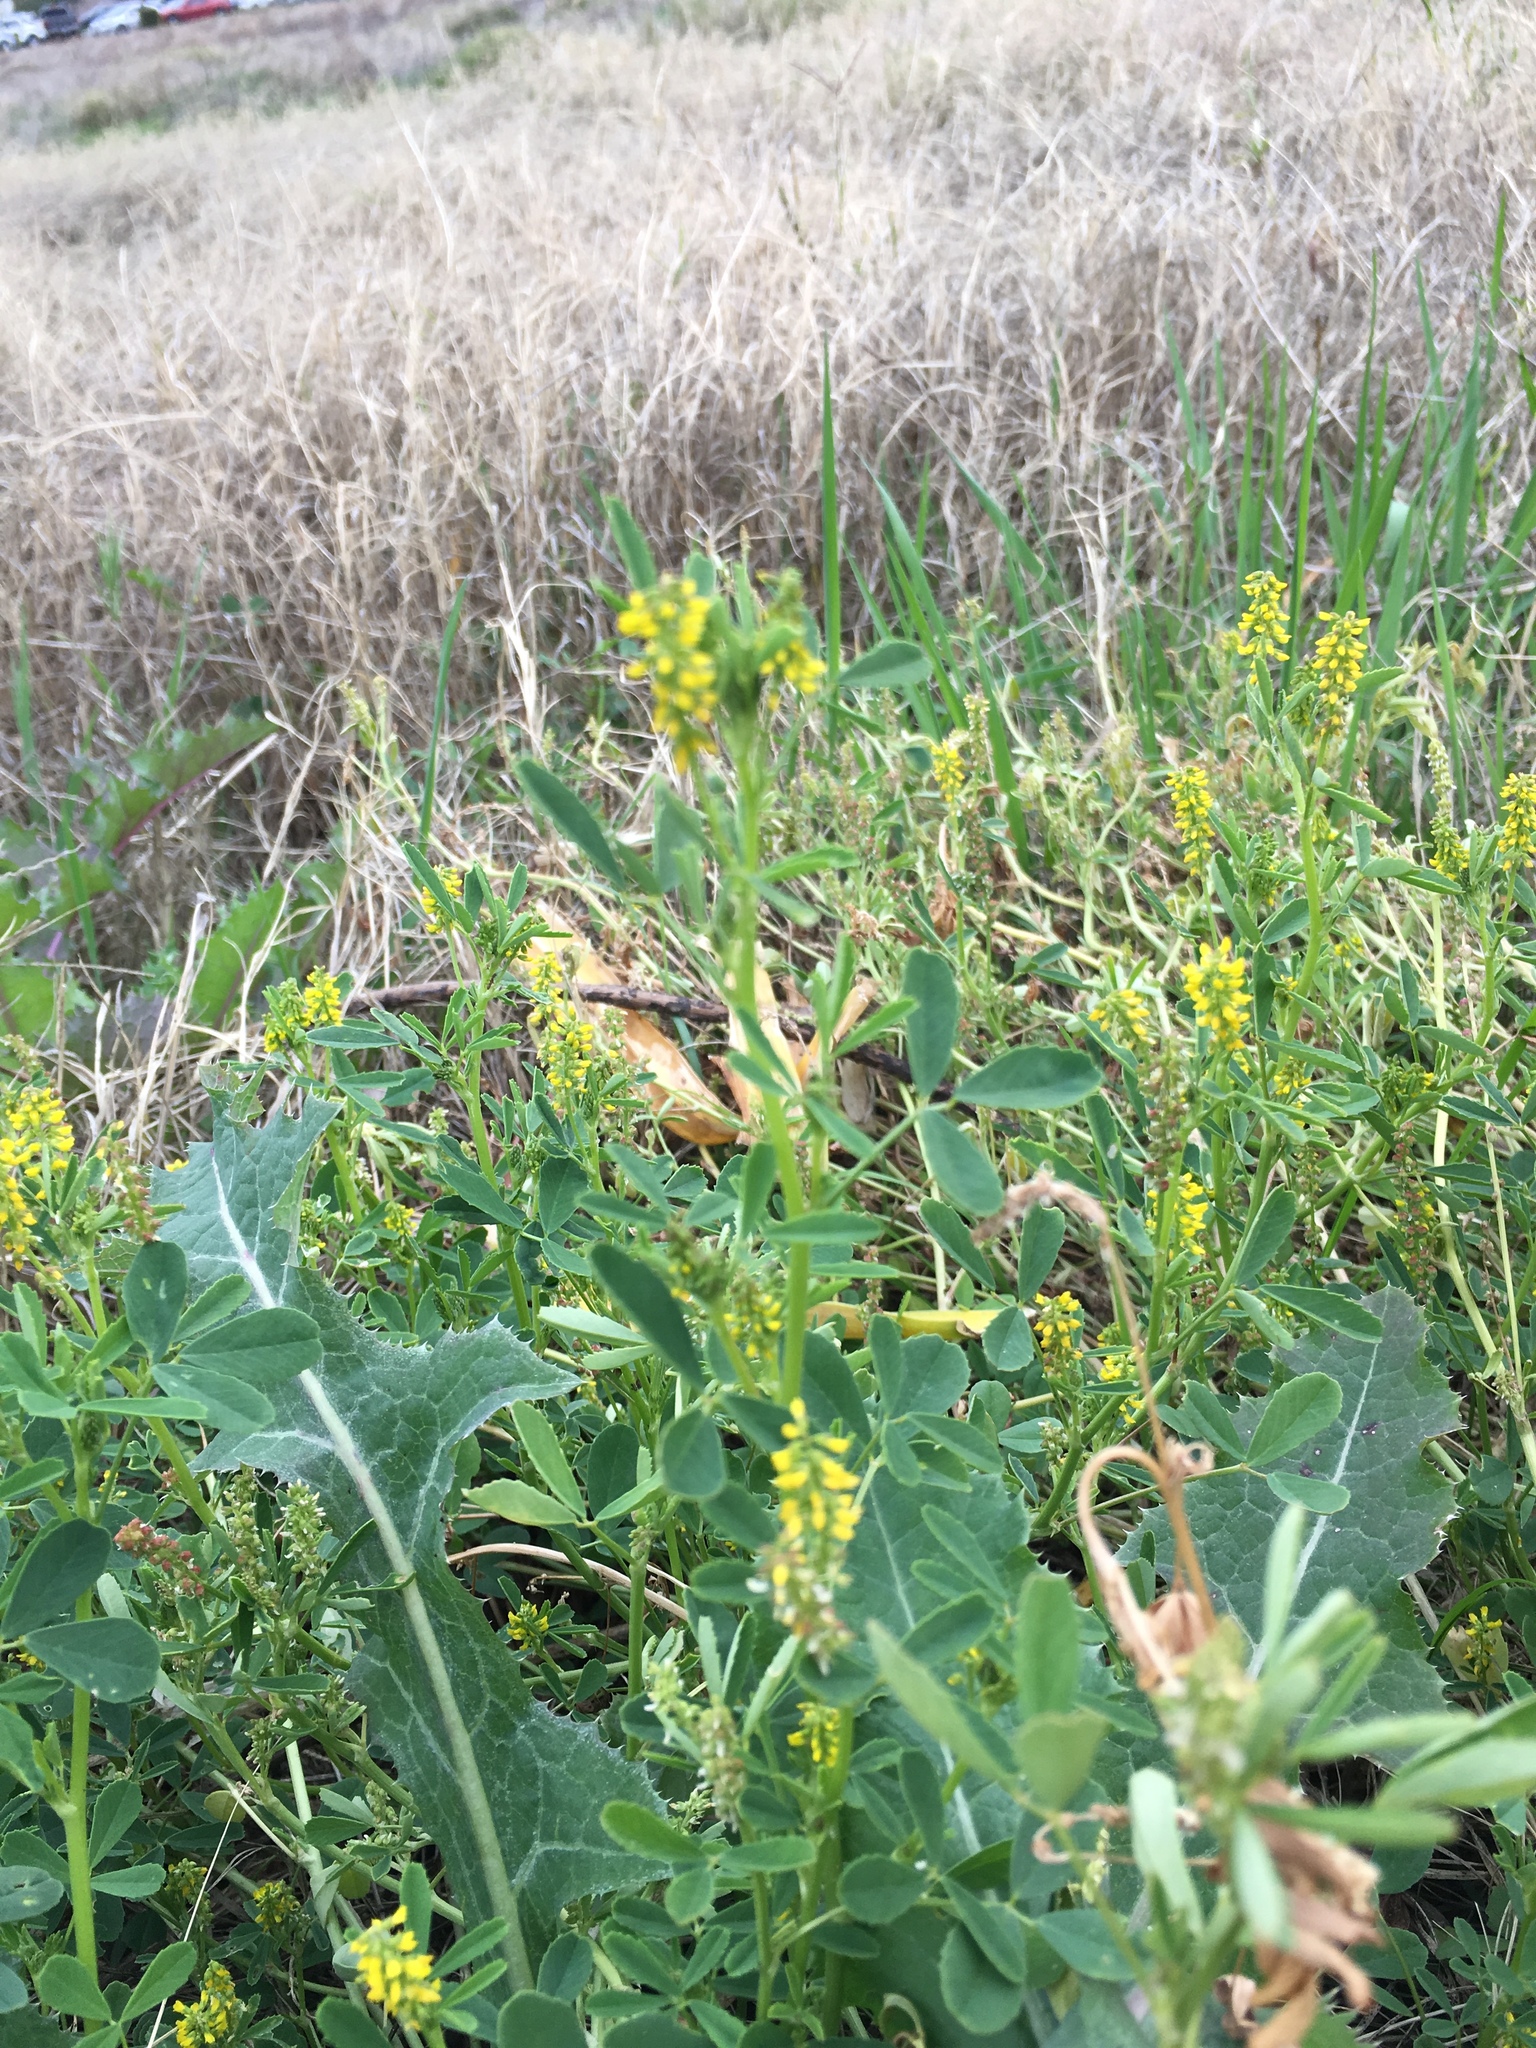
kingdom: Plantae
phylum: Tracheophyta
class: Magnoliopsida
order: Fabales
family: Fabaceae
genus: Melilotus
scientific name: Melilotus indicus
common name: Small melilot
